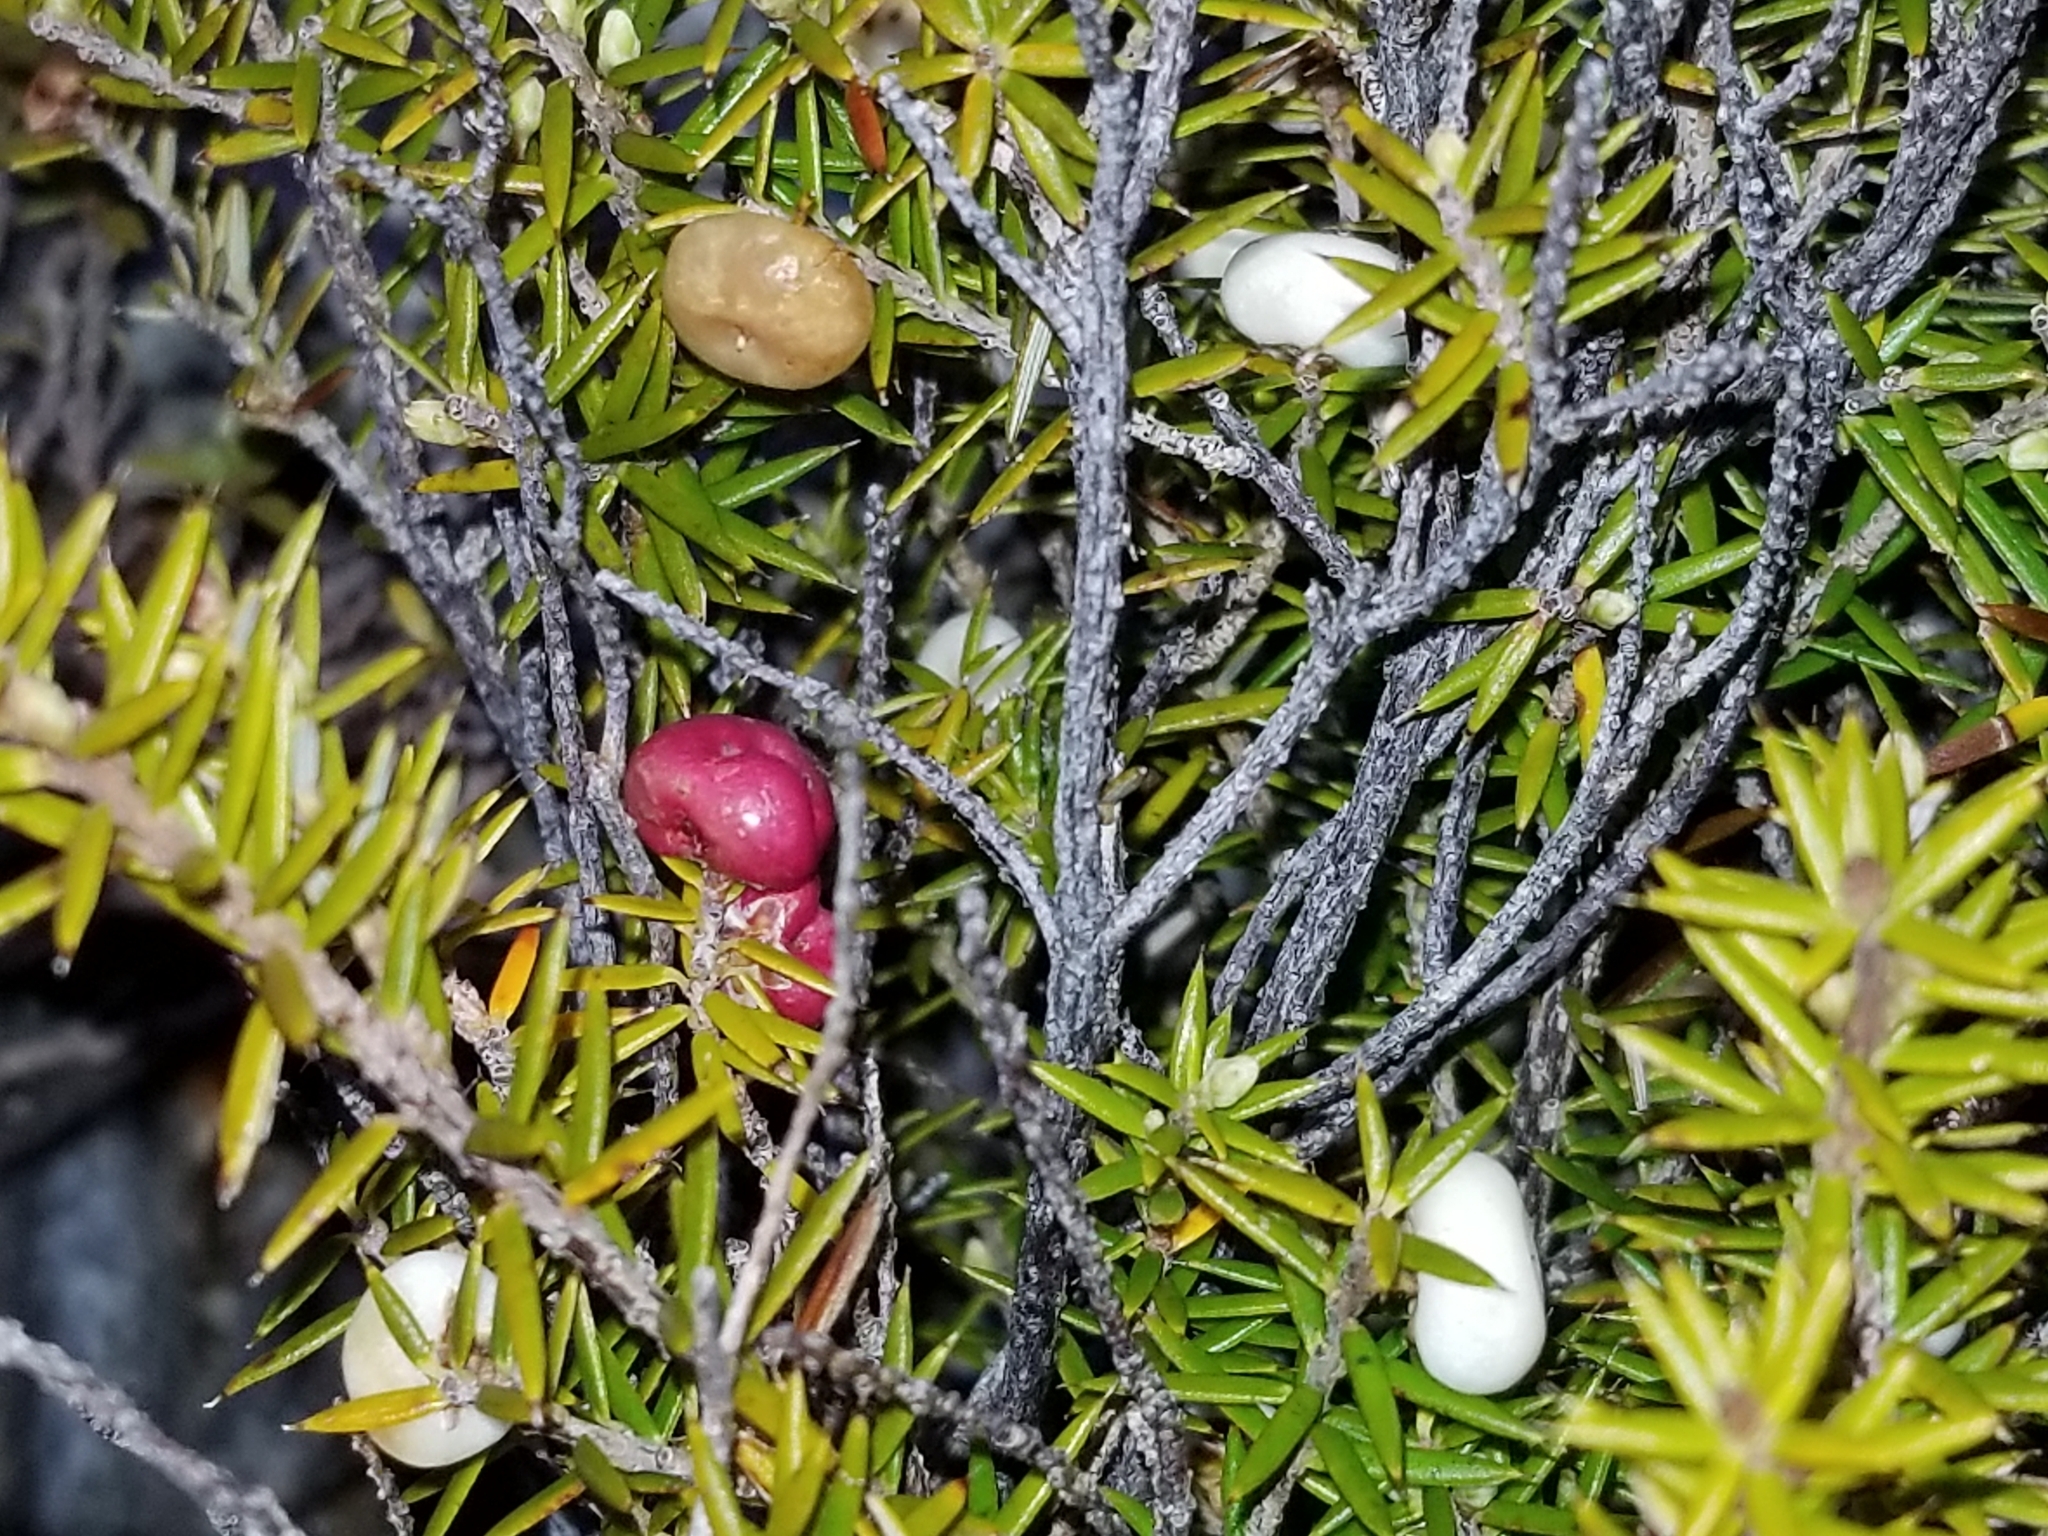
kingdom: Plantae
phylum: Tracheophyta
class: Magnoliopsida
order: Ericales
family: Ericaceae
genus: Leptecophylla
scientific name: Leptecophylla juniperina
